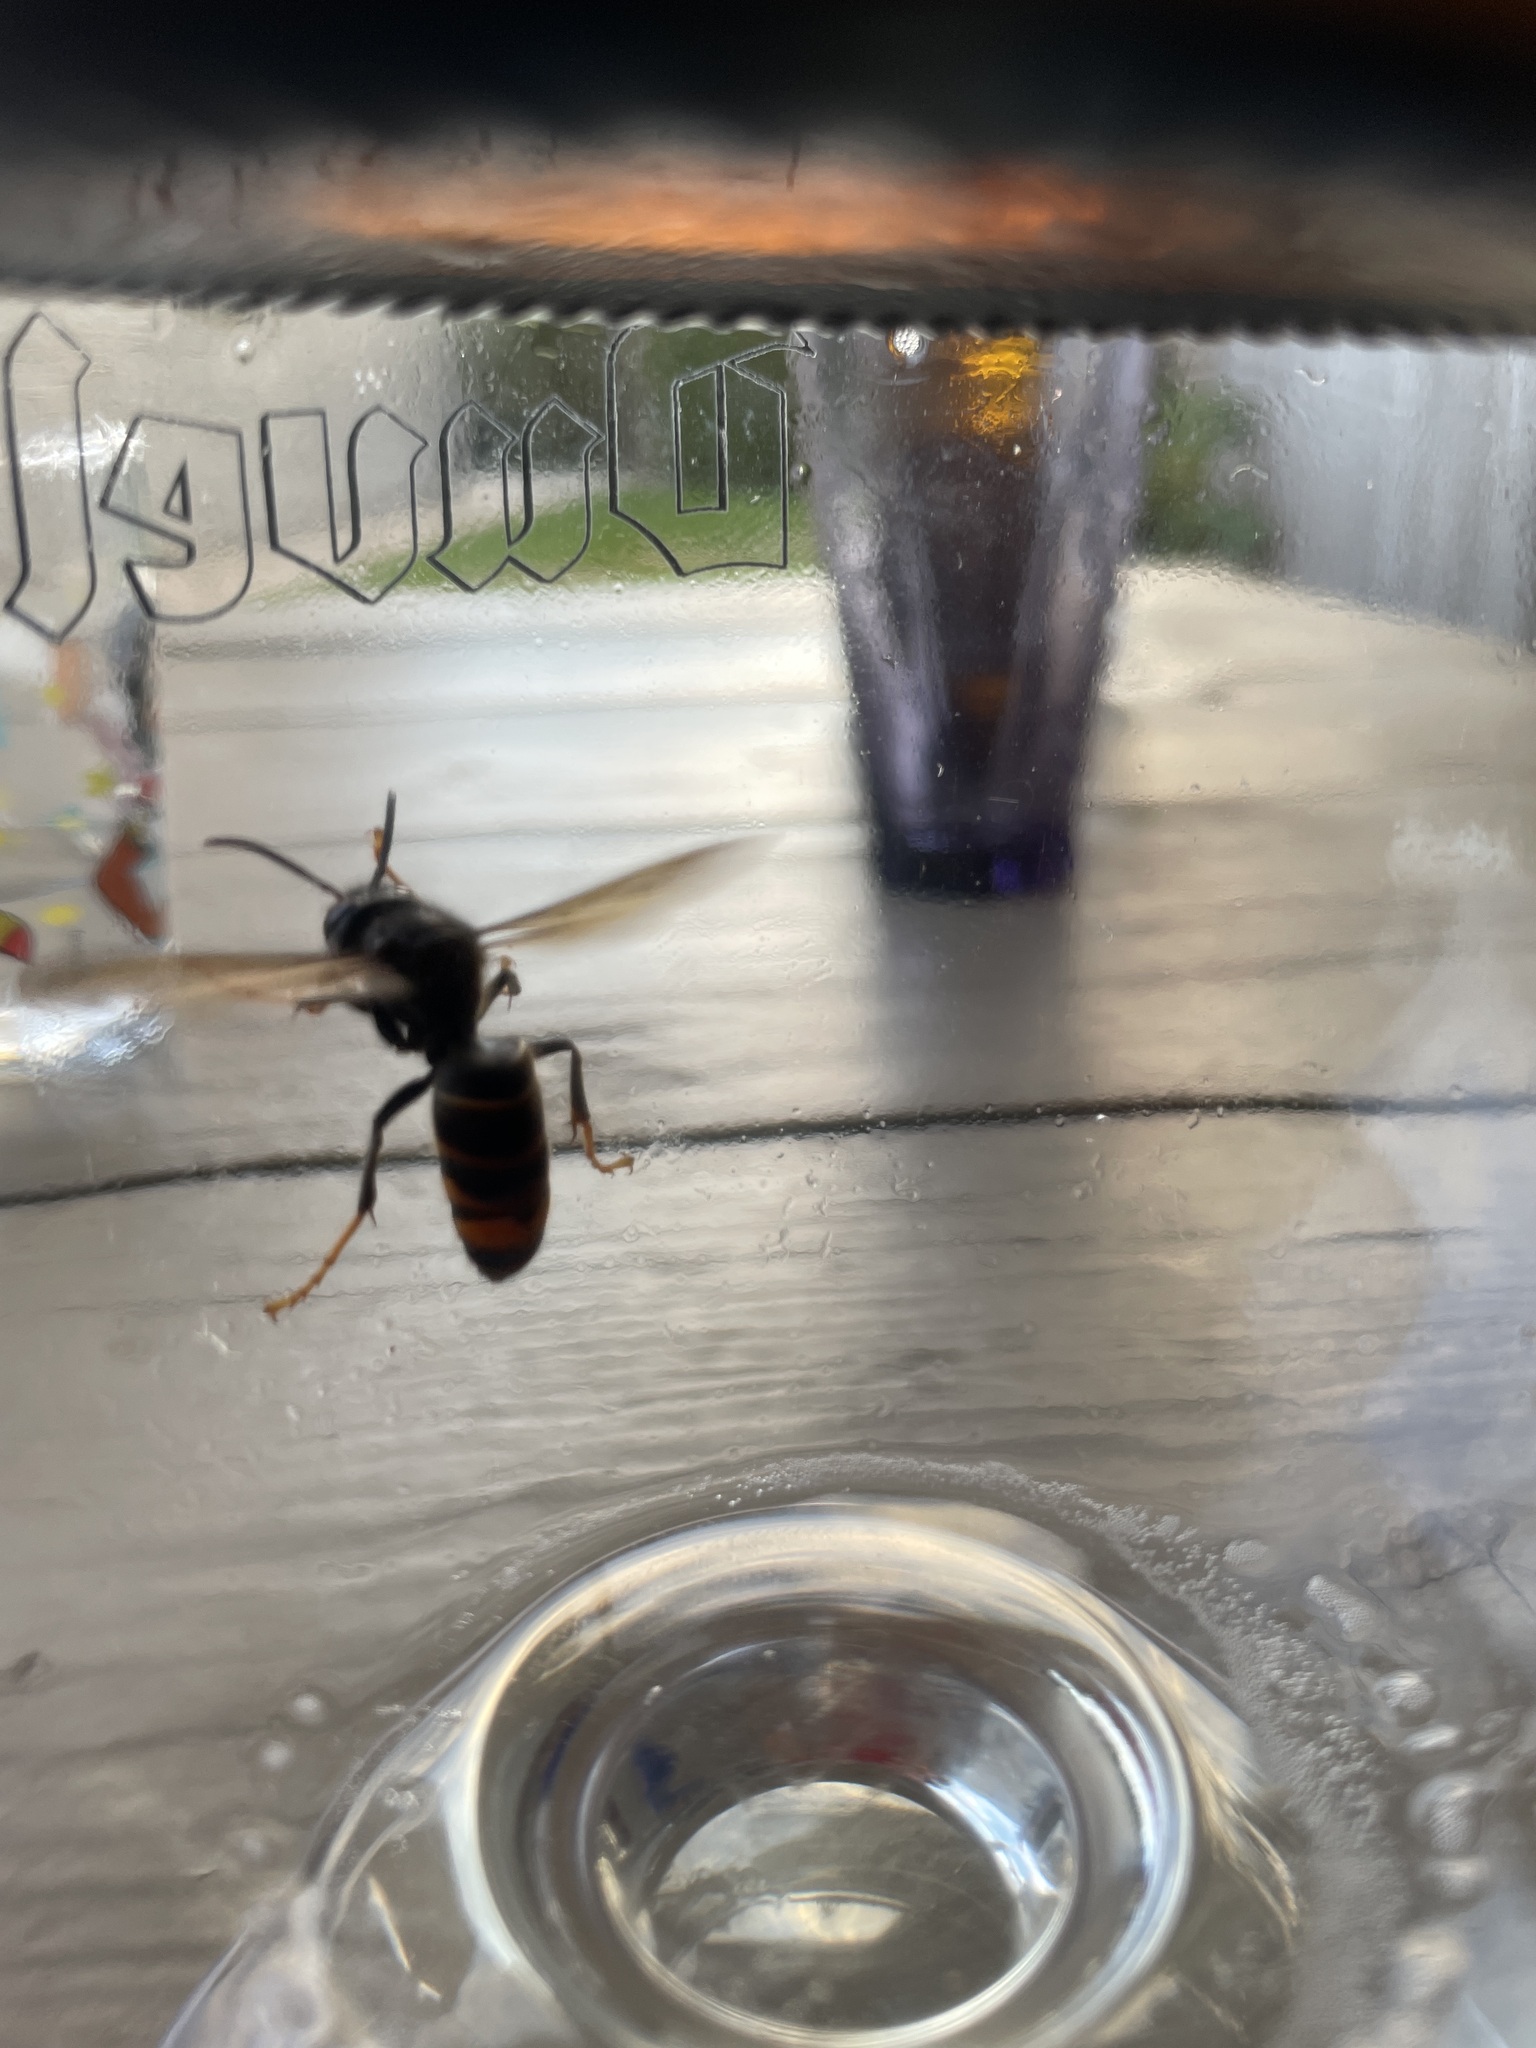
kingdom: Animalia
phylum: Arthropoda
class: Insecta
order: Hymenoptera
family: Vespidae
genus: Vespa
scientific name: Vespa velutina
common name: Asian hornet
